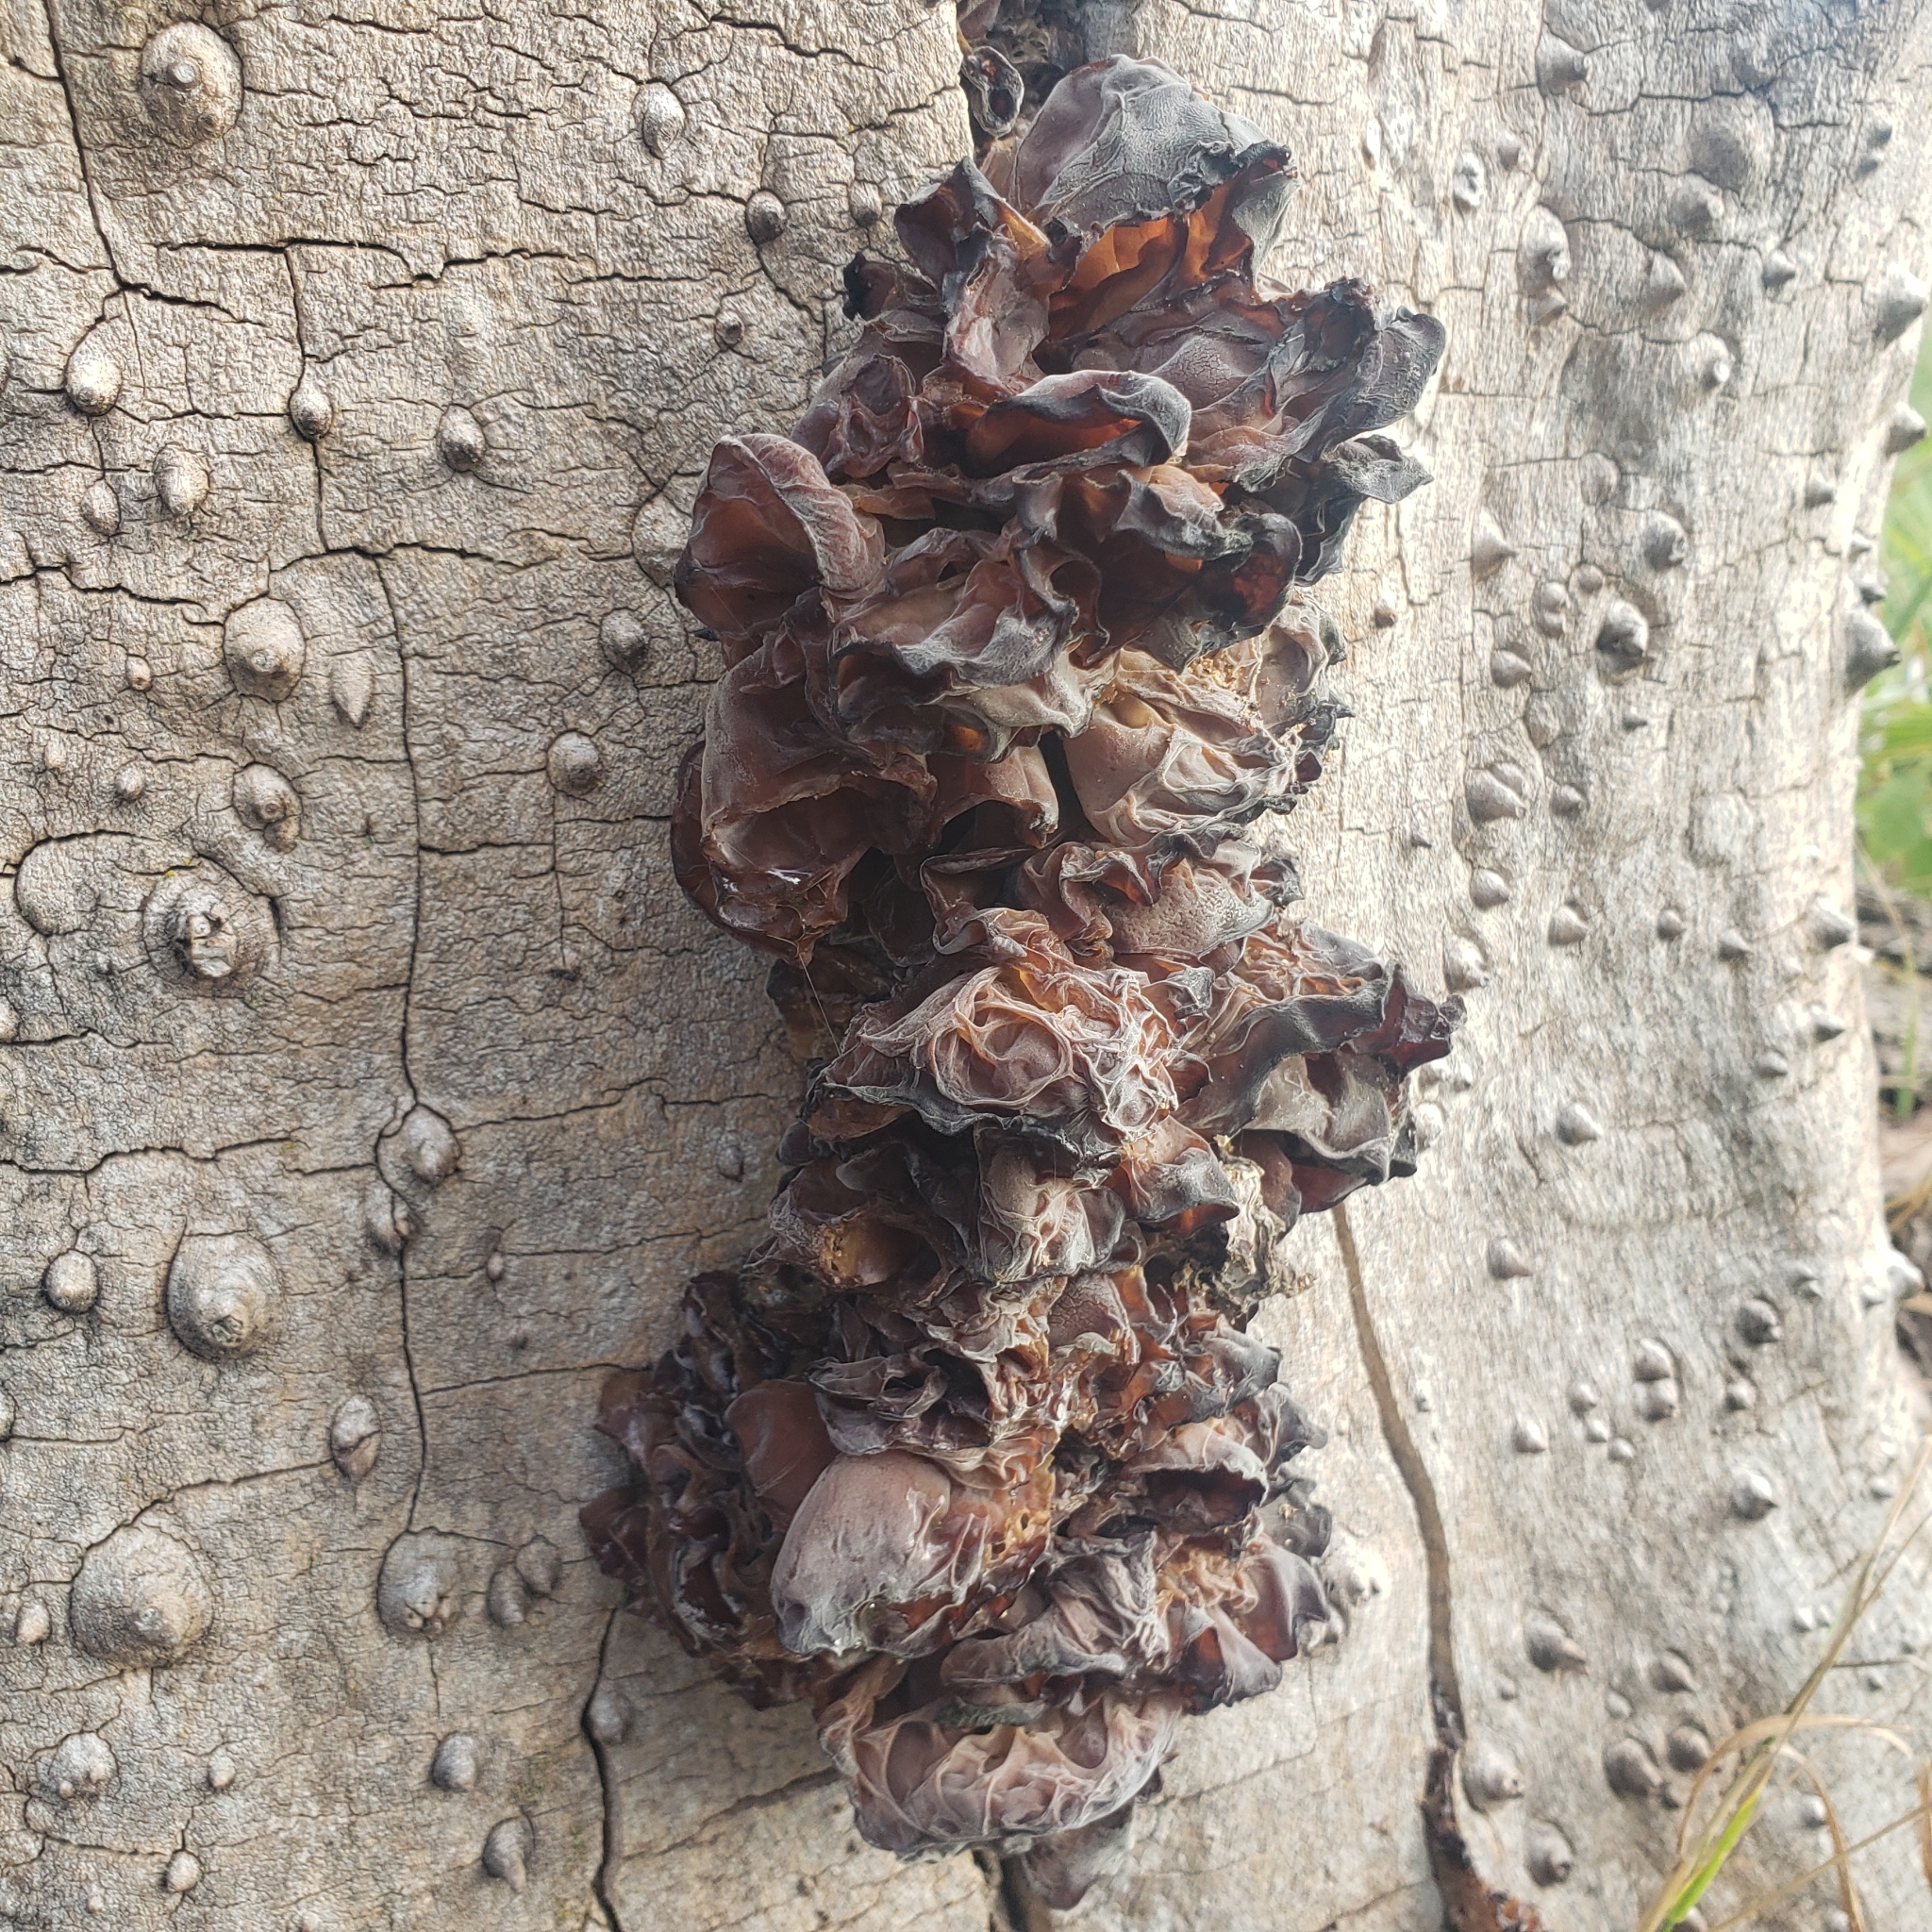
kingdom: Fungi
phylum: Basidiomycota
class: Agaricomycetes
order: Auriculariales
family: Auriculariaceae
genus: Auricularia
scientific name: Auricularia americana
